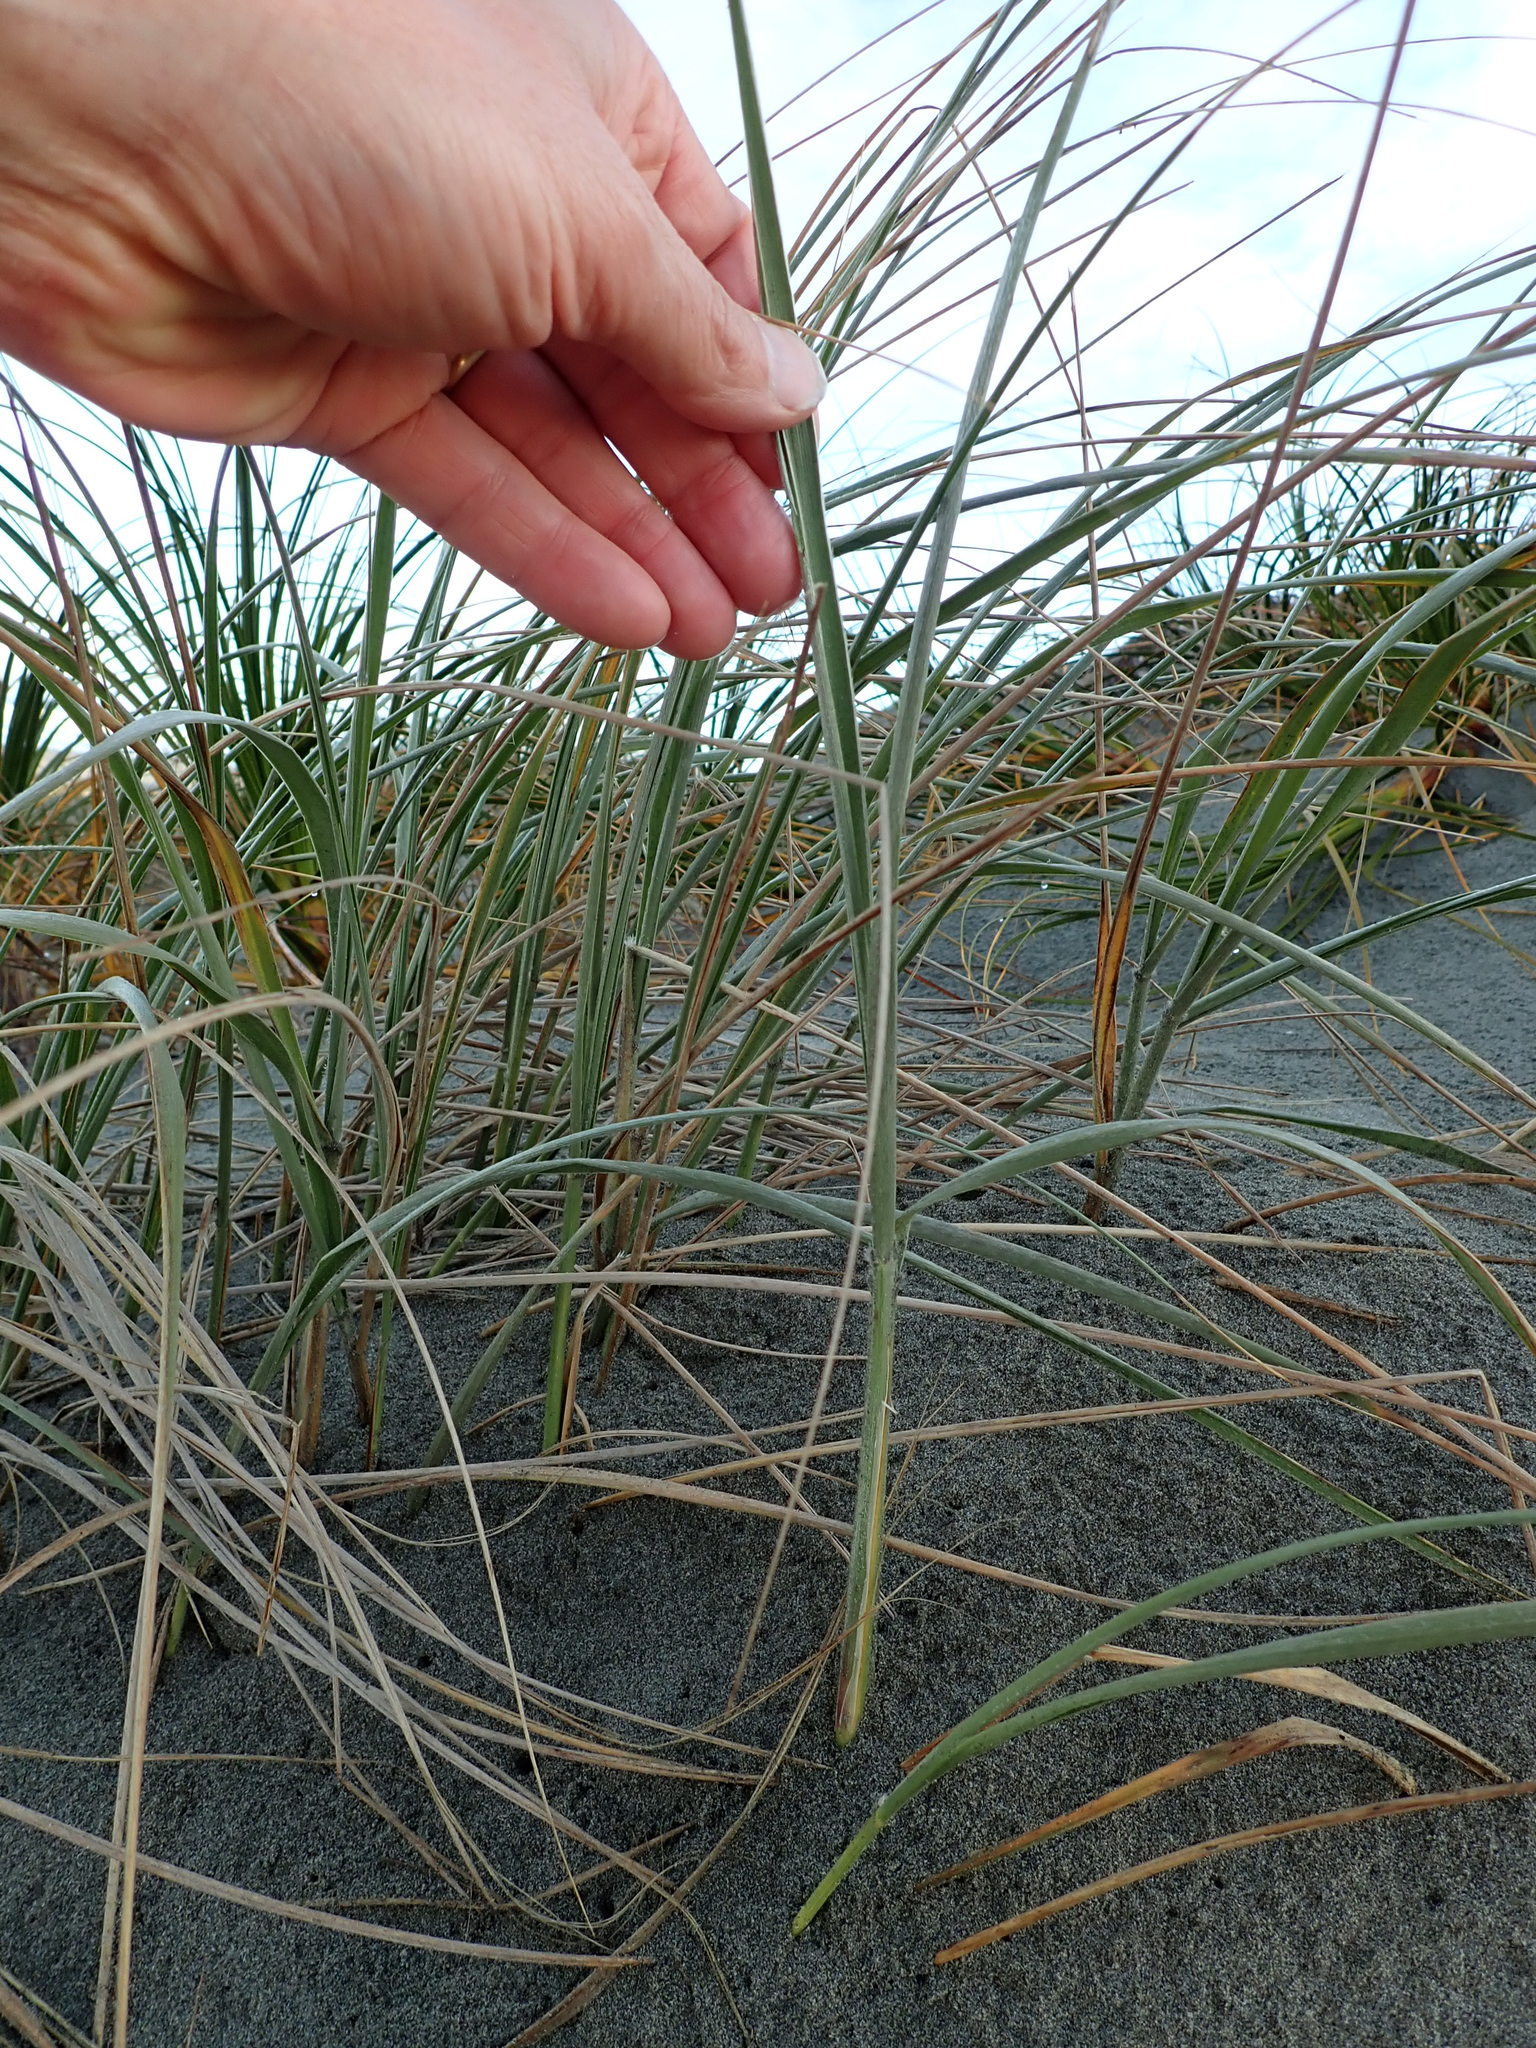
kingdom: Plantae
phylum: Tracheophyta
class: Liliopsida
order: Poales
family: Poaceae
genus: Spinifex
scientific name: Spinifex sericeus
